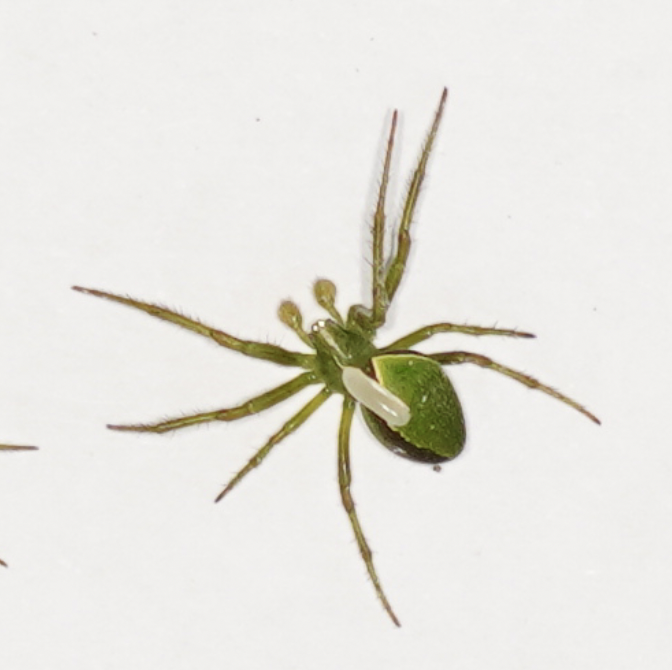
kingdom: Animalia
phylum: Arthropoda
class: Arachnida
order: Araneae
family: Araneidae
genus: Colaranea
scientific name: Colaranea viriditas
